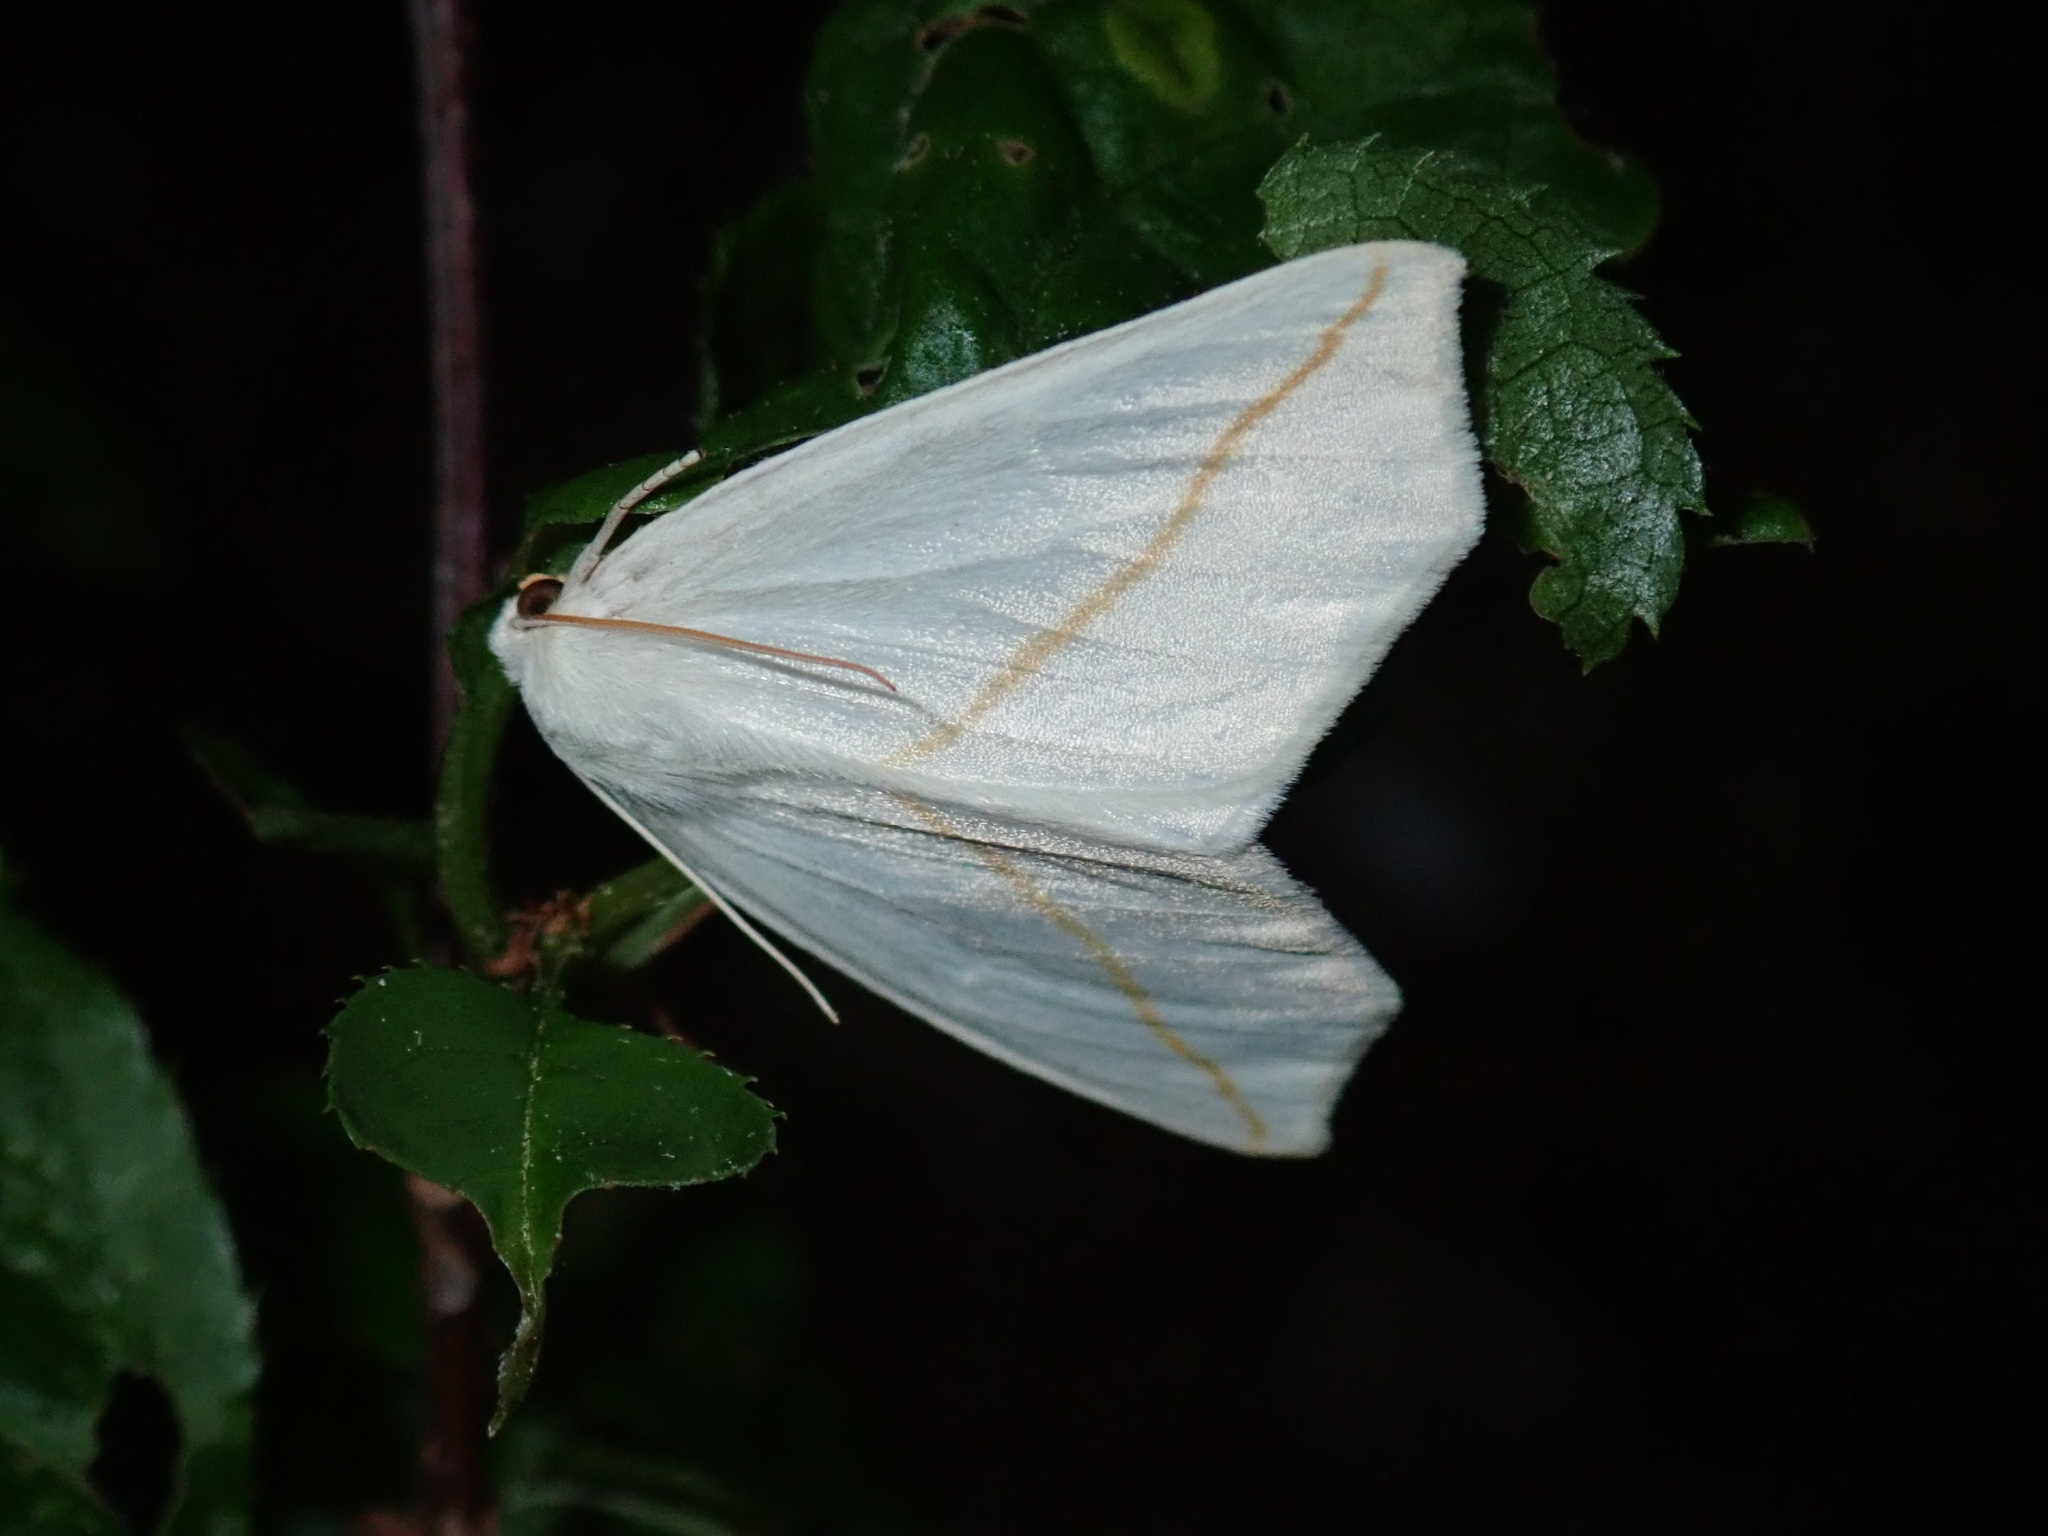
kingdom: Animalia
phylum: Arthropoda
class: Insecta
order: Lepidoptera
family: Geometridae
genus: Tetracis
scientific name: Tetracis cachexiata
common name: White slant-line
